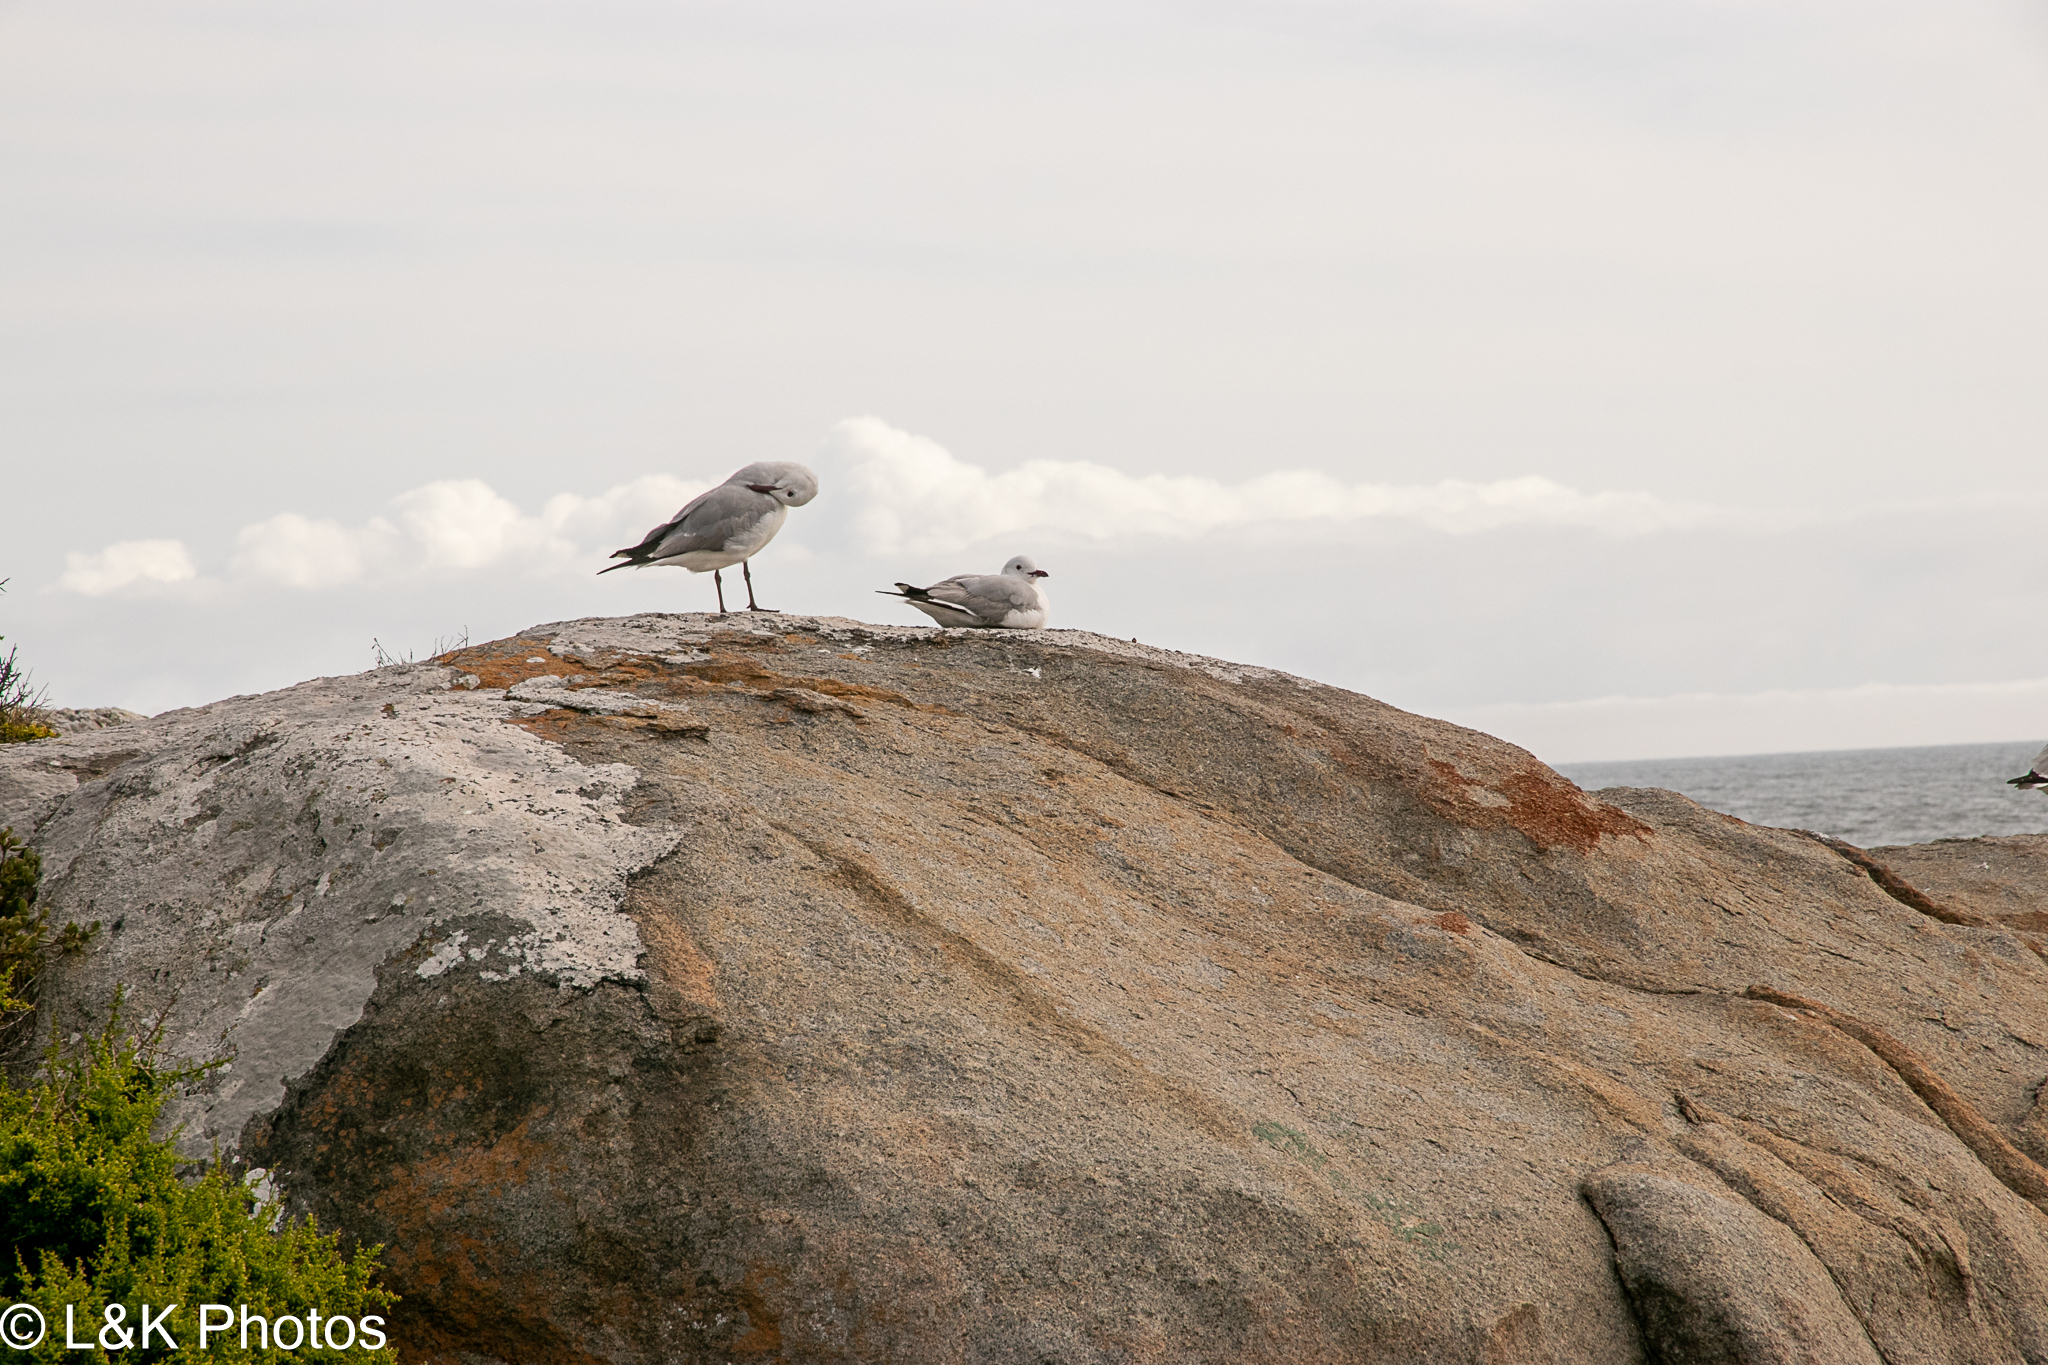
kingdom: Animalia
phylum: Chordata
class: Aves
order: Charadriiformes
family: Laridae
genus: Chroicocephalus
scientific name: Chroicocephalus hartlaubii
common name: Hartlaub's gull
